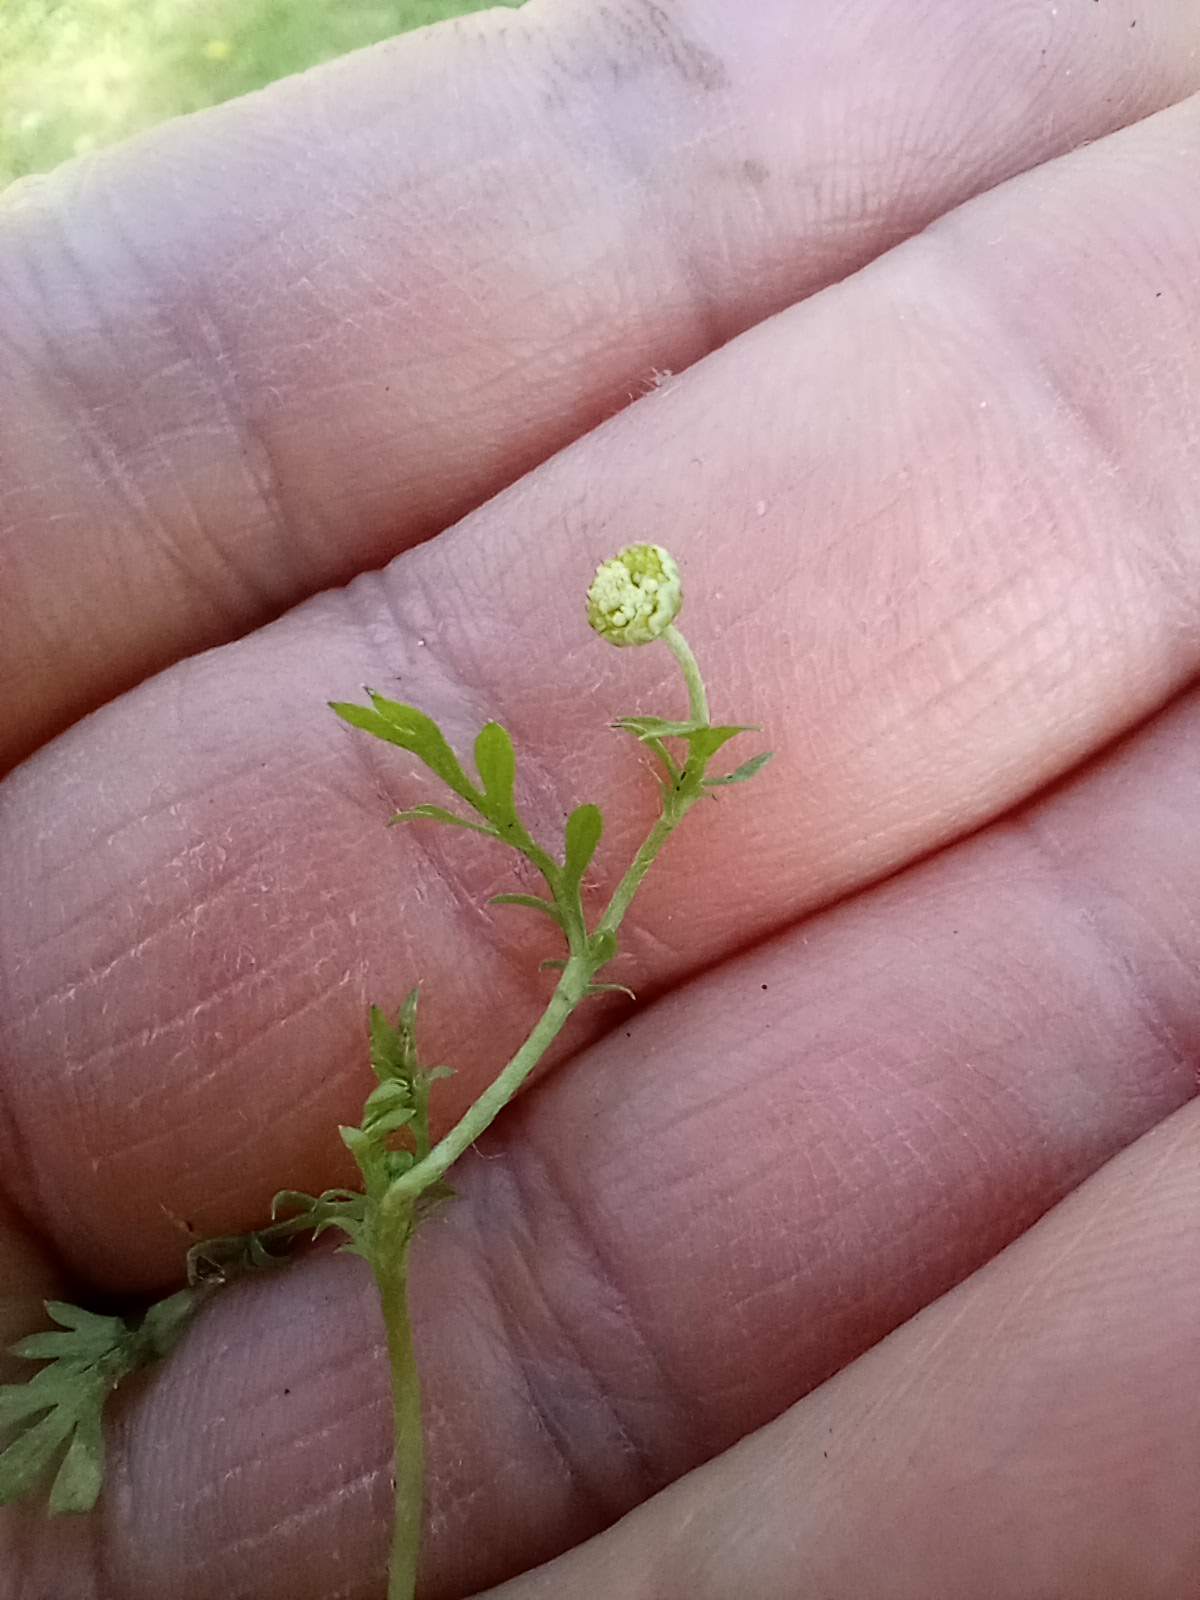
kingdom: Plantae
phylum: Tracheophyta
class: Magnoliopsida
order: Asterales
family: Asteraceae
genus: Cotula
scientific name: Cotula australis
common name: Australian waterbuttons
